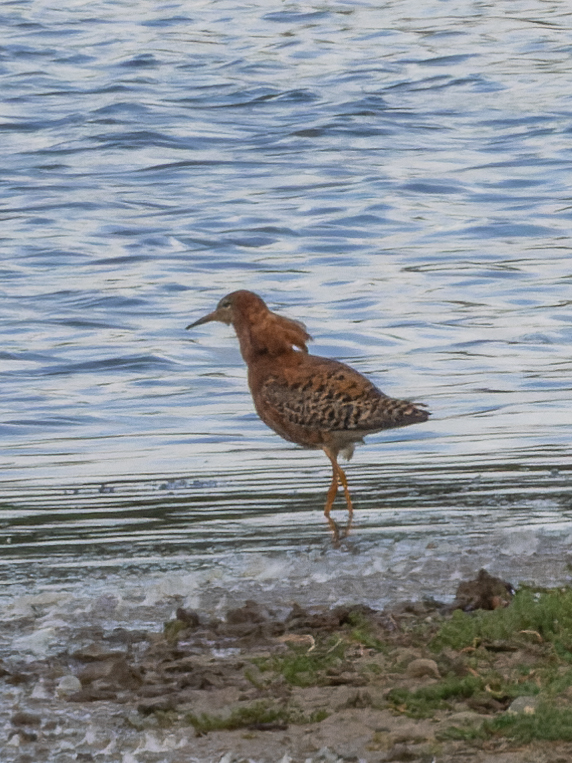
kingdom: Animalia
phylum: Chordata
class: Aves
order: Charadriiformes
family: Scolopacidae
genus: Calidris
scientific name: Calidris pugnax
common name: Ruff
